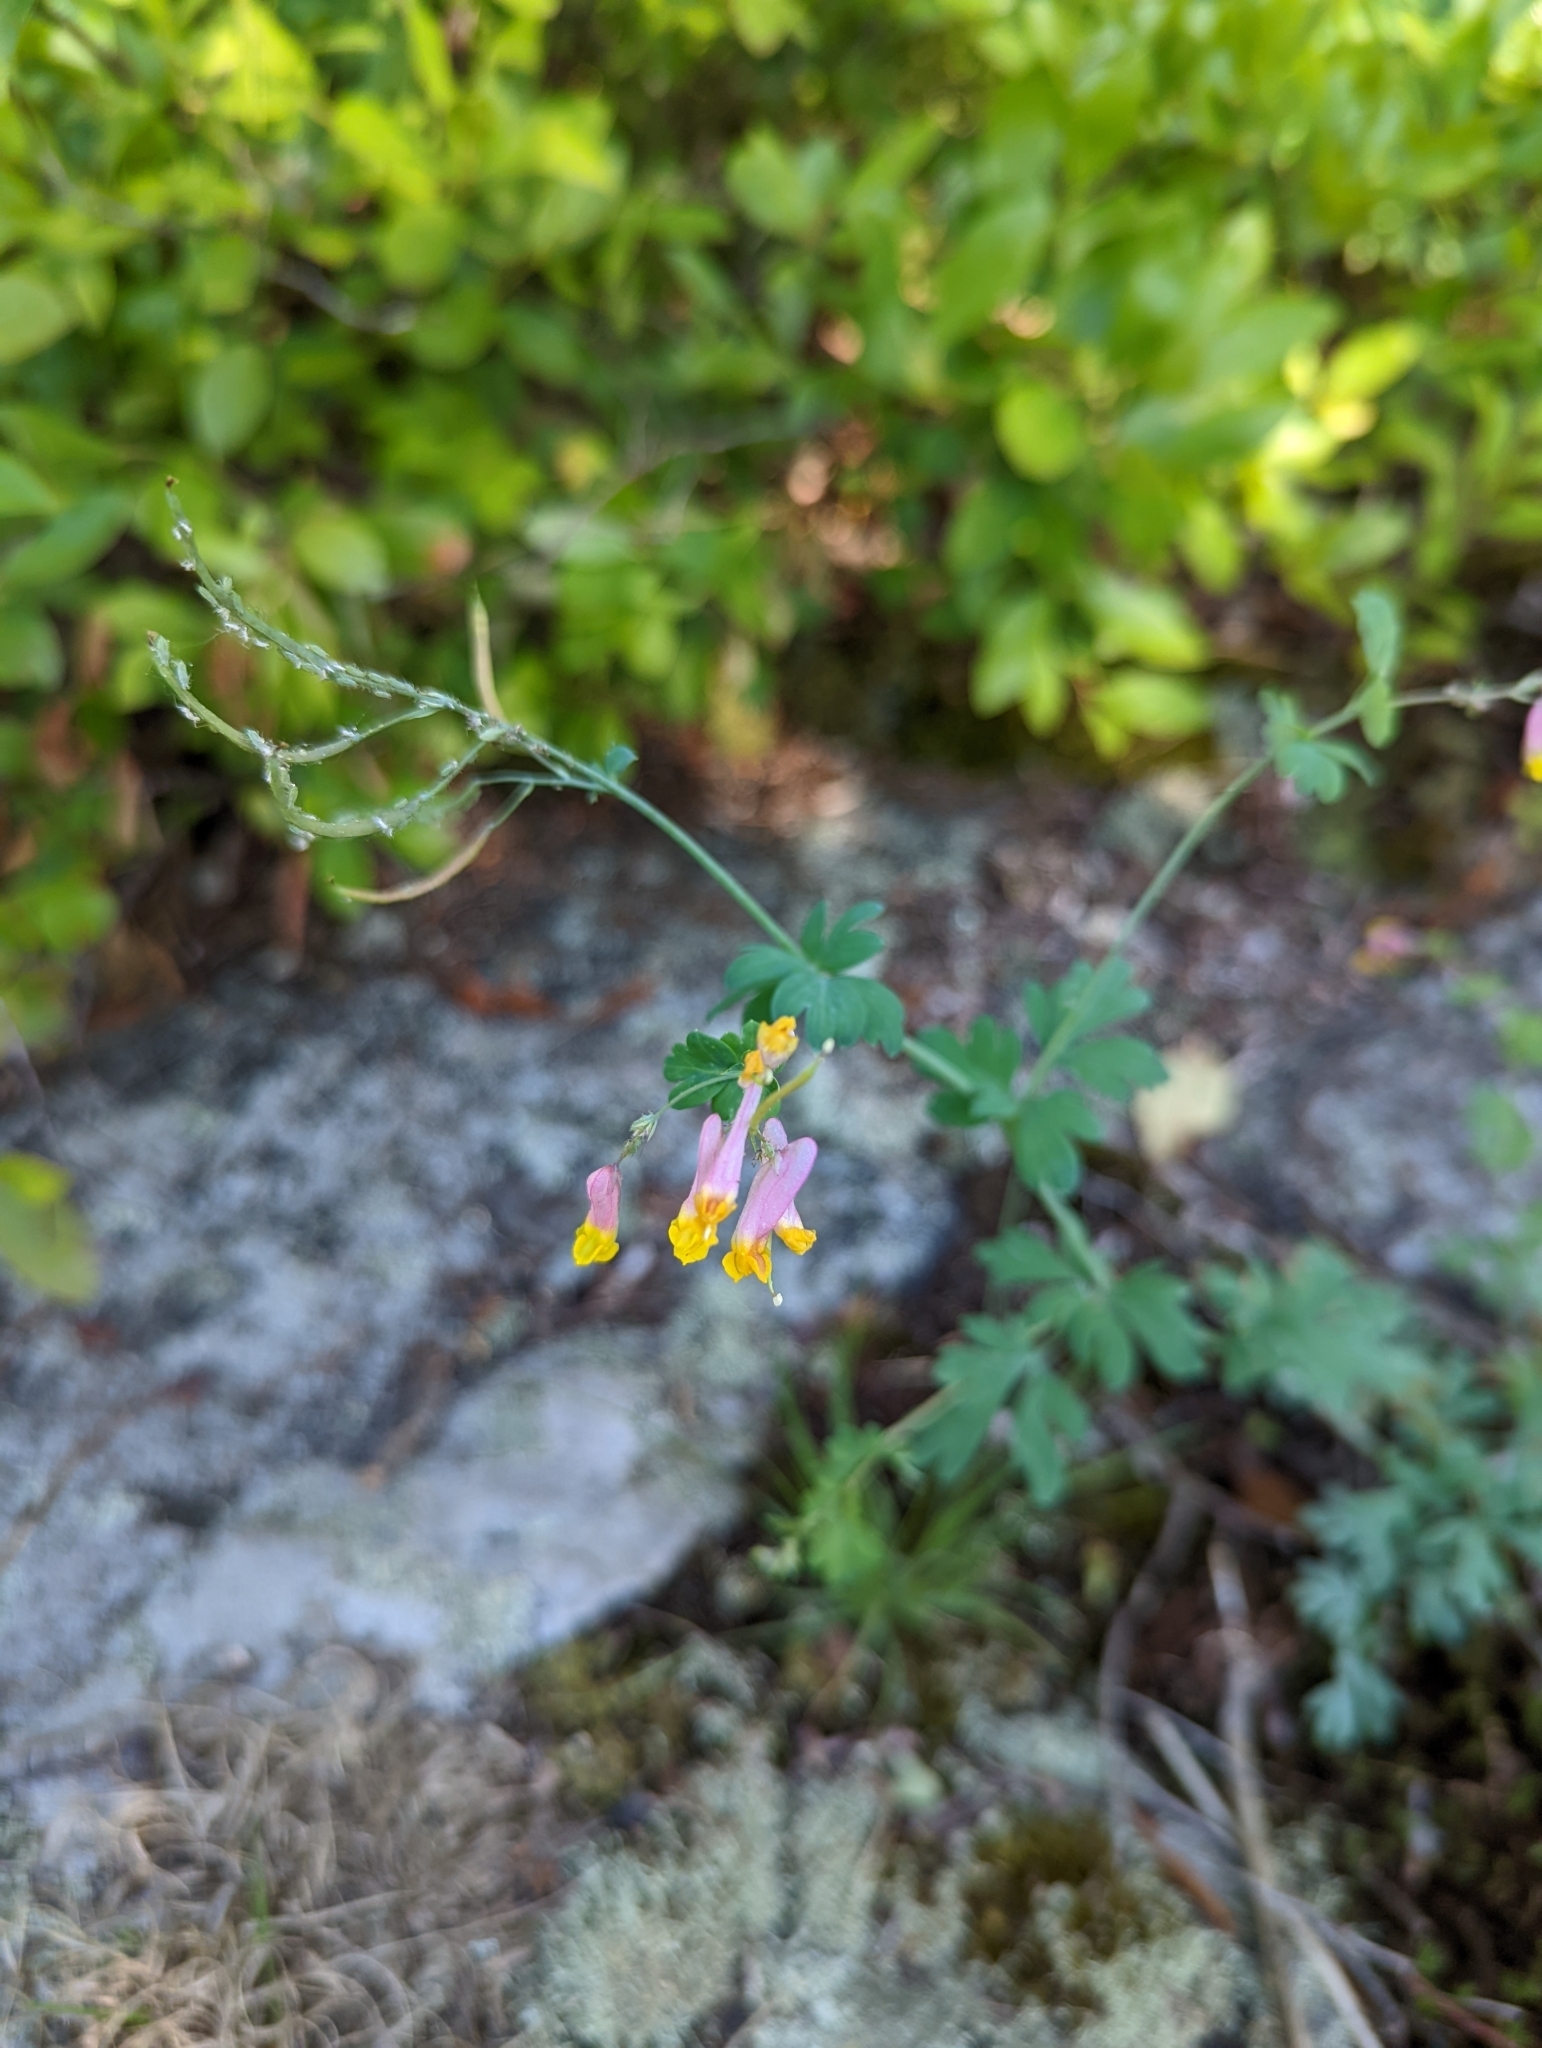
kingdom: Plantae
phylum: Tracheophyta
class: Magnoliopsida
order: Ranunculales
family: Papaveraceae
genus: Capnoides
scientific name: Capnoides sempervirens
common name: Rock harlequin
